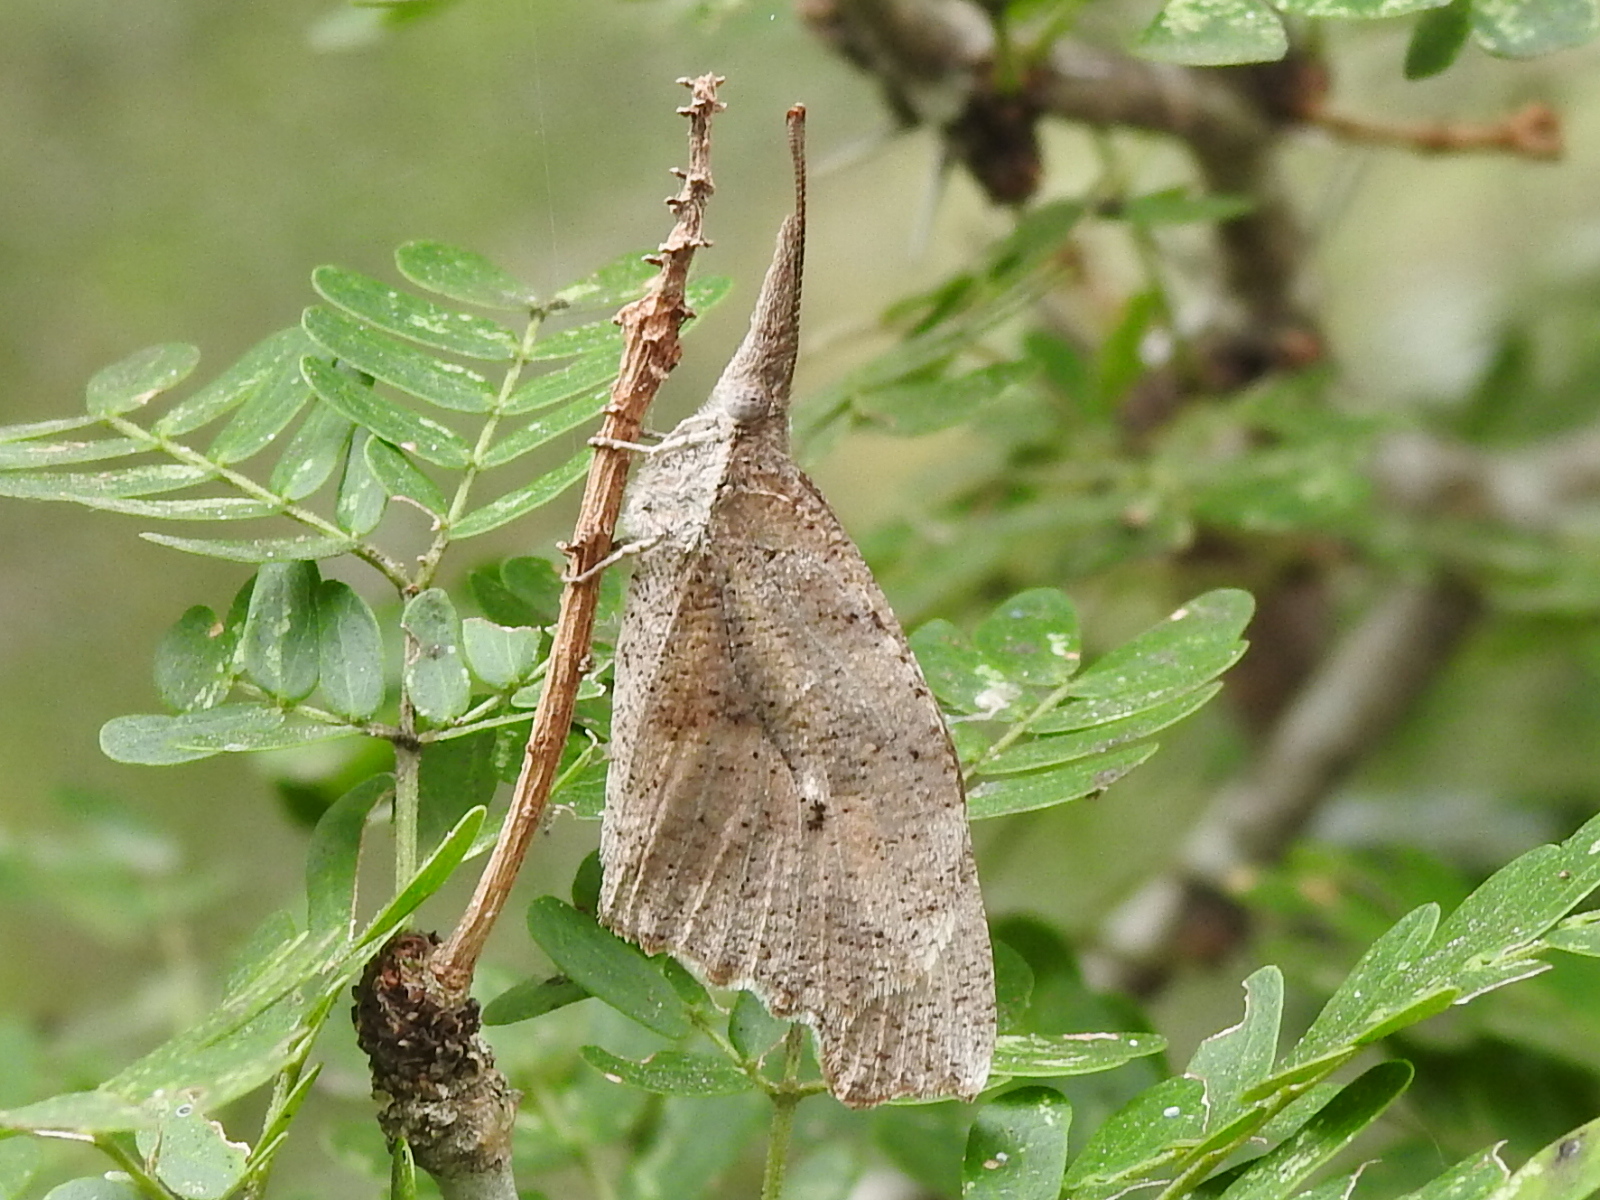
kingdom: Animalia
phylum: Arthropoda
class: Insecta
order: Lepidoptera
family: Nymphalidae
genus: Libytheana
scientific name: Libytheana carinenta
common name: American snout
